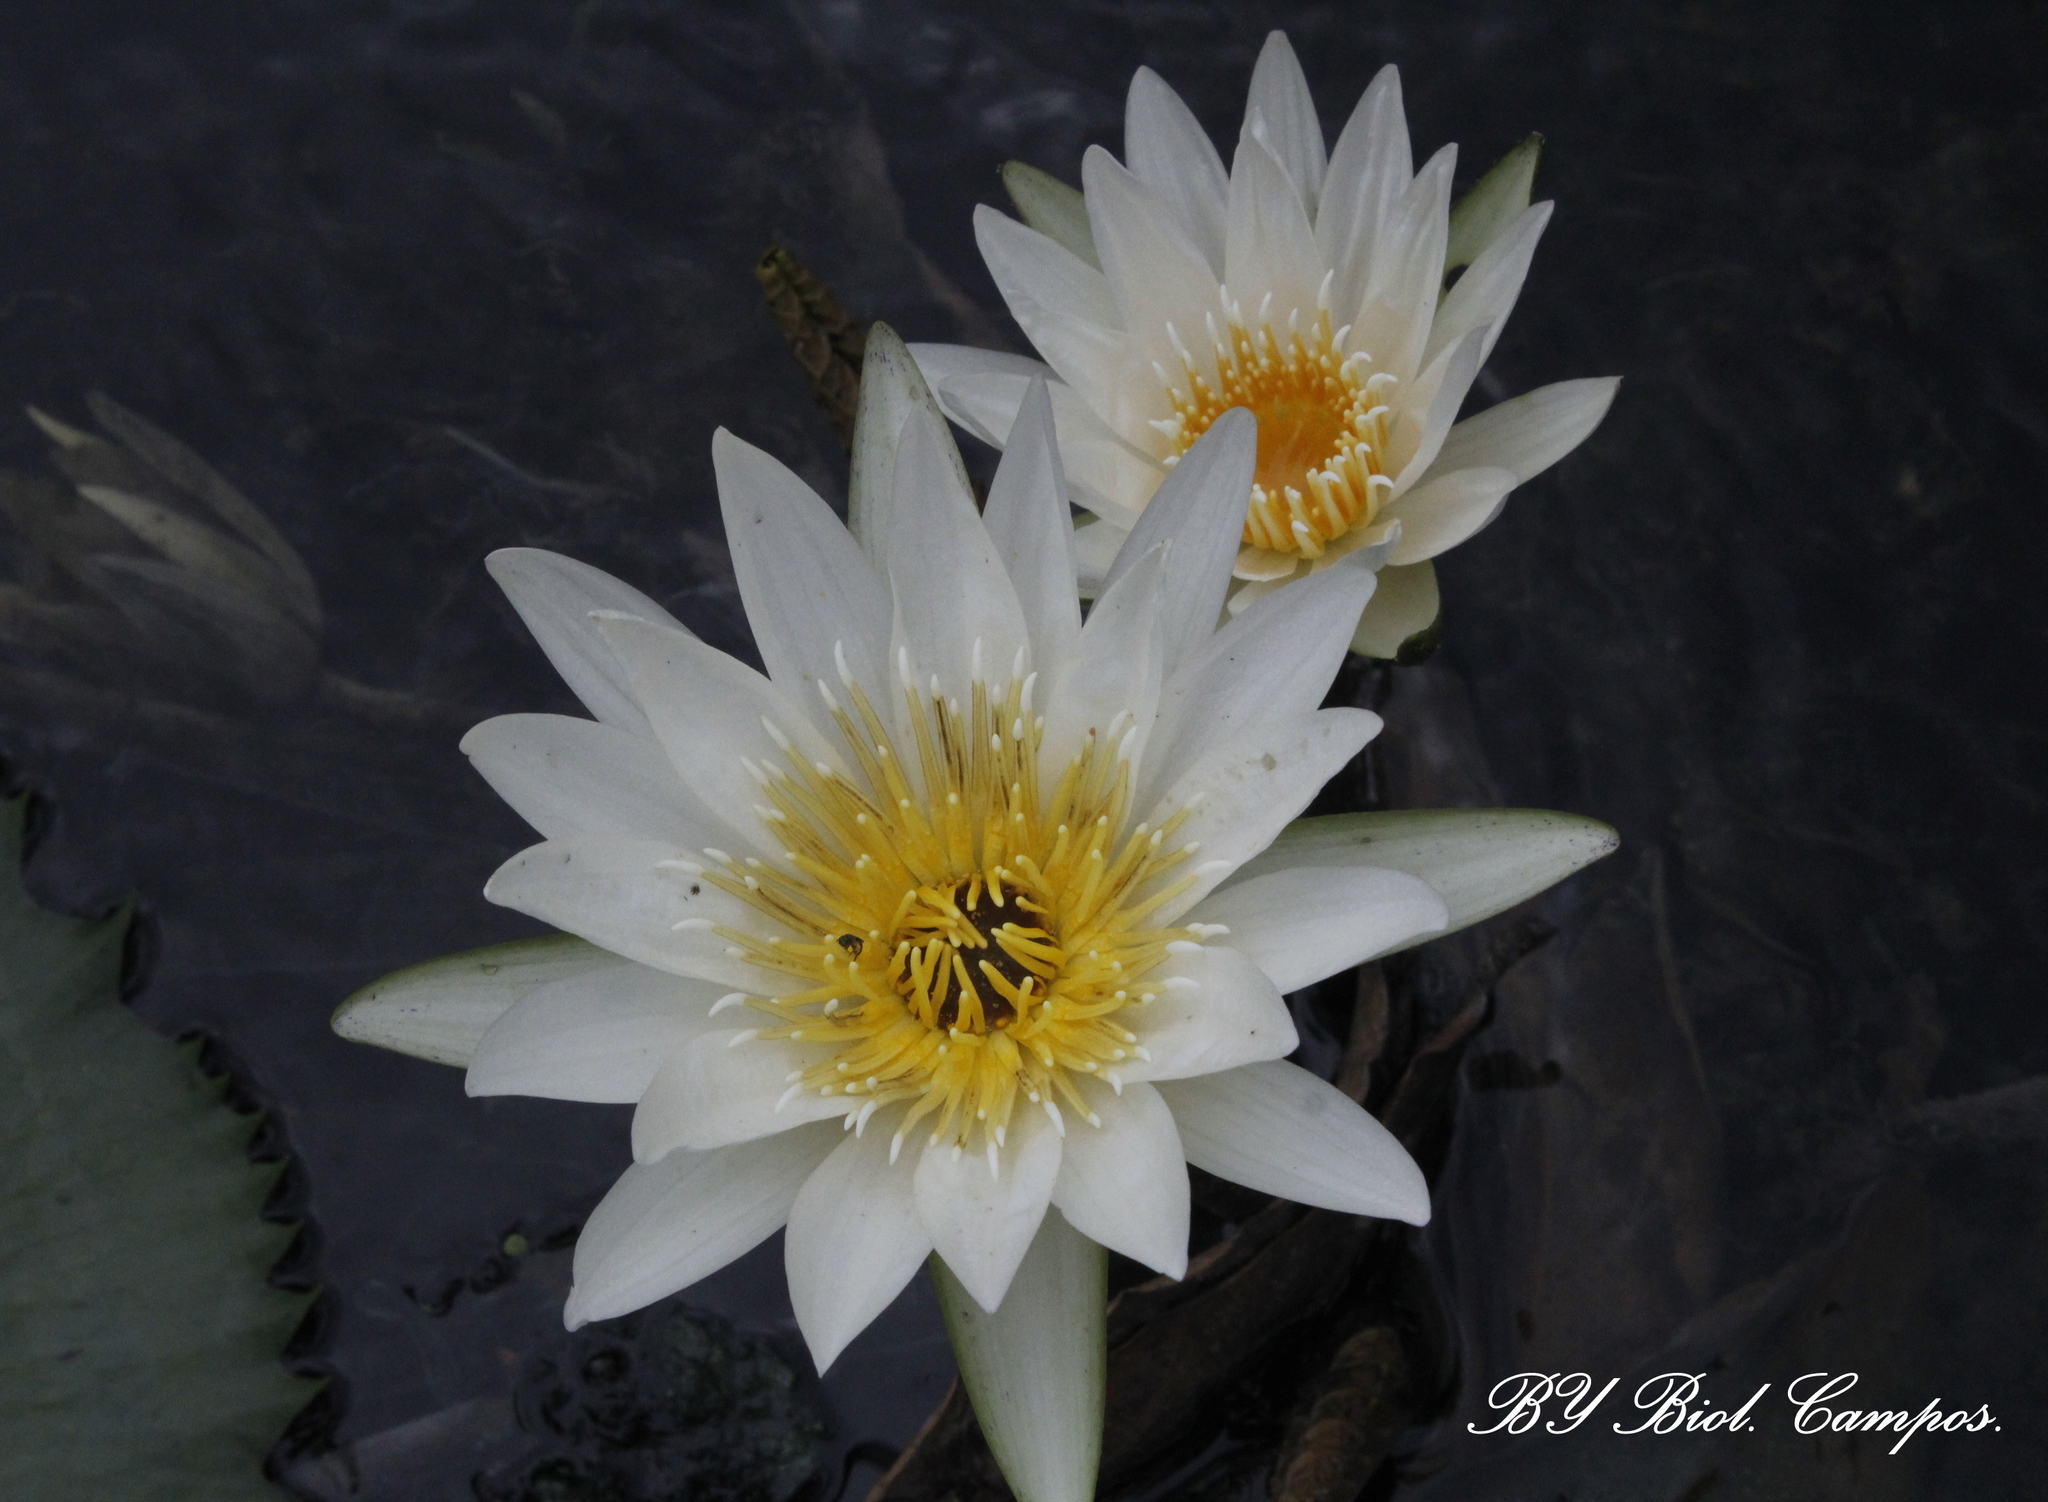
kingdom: Plantae
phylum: Tracheophyta
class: Magnoliopsida
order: Nymphaeales
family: Nymphaeaceae
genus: Nymphaea
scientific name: Nymphaea ampla
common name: Dotleaf waterlily
